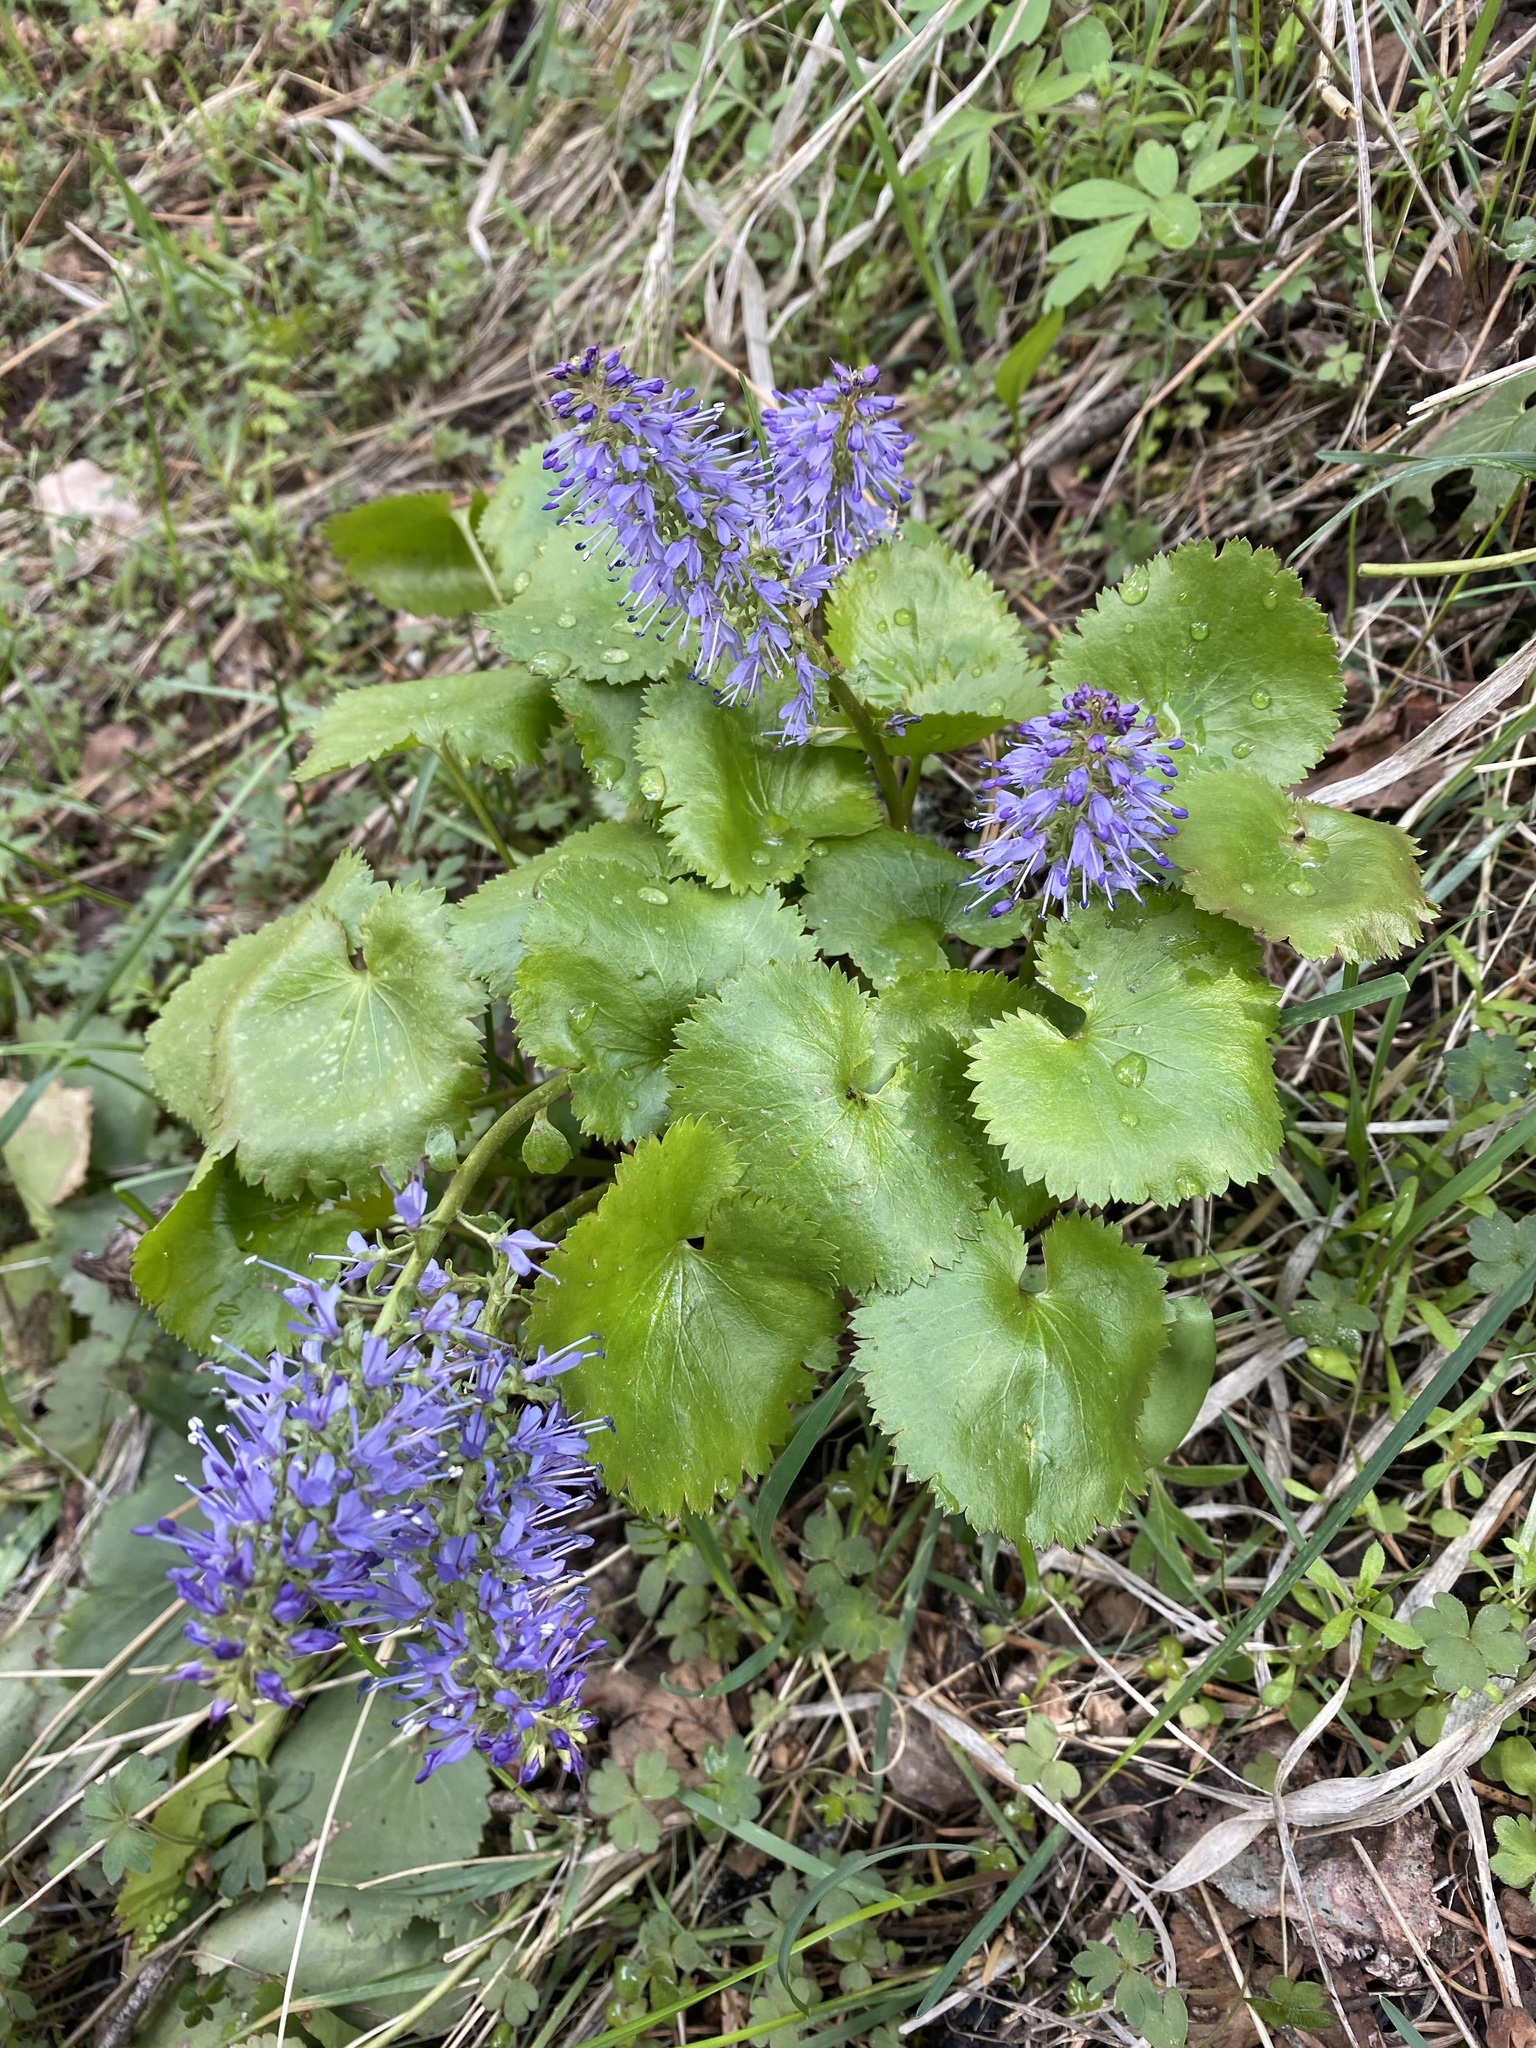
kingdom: Plantae
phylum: Tracheophyta
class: Magnoliopsida
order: Lamiales
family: Plantaginaceae
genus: Synthyris
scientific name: Synthyris missurica
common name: Kitten-tails
